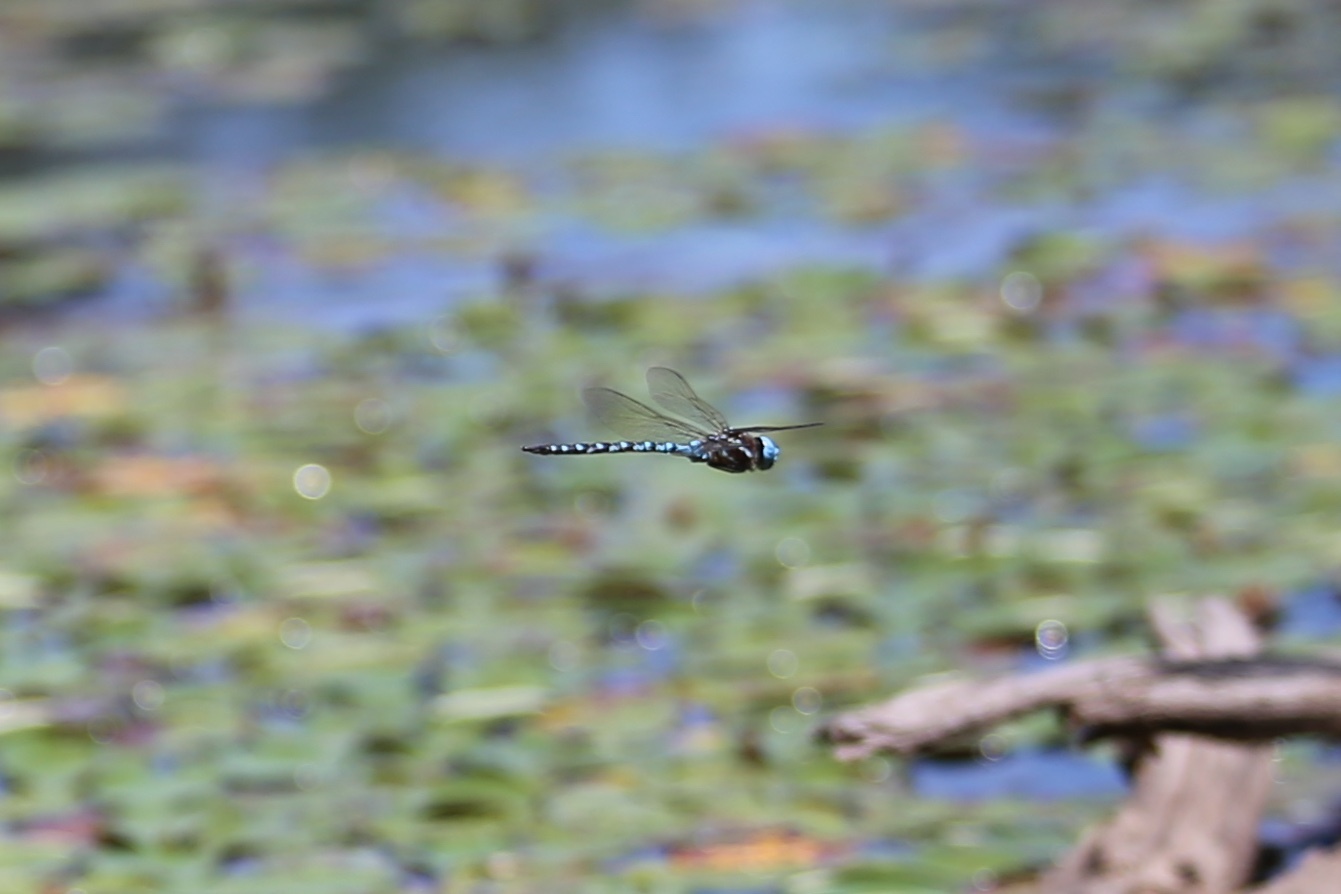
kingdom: Animalia
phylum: Arthropoda
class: Insecta
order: Odonata
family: Aeshnidae
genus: Rhionaeschna
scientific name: Rhionaeschna mutata
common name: Spatterdock darner
